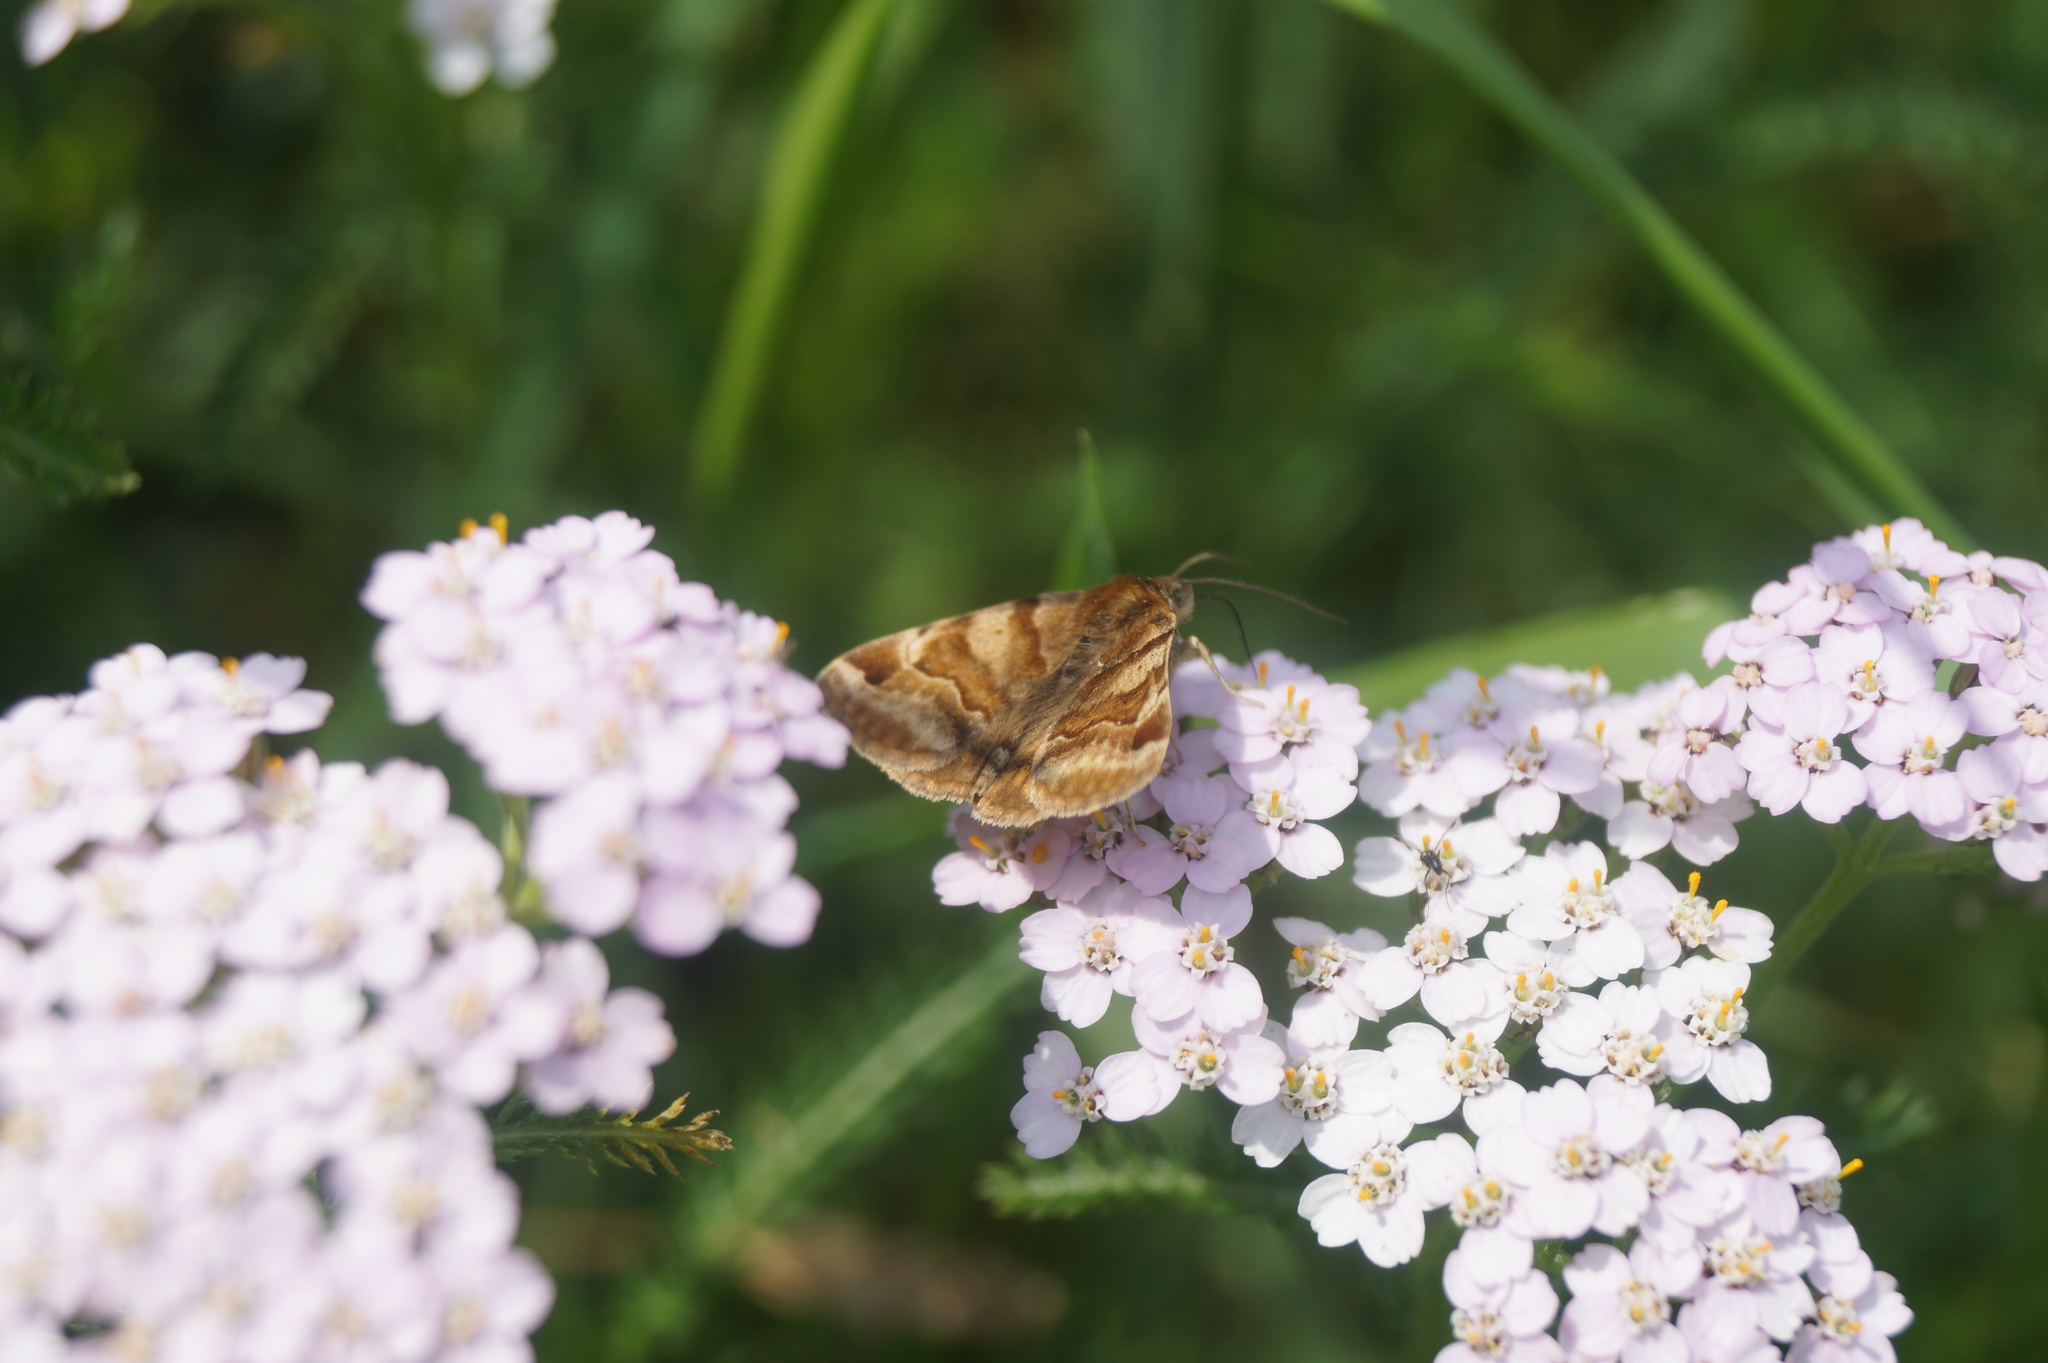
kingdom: Animalia
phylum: Arthropoda
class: Insecta
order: Lepidoptera
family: Erebidae
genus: Euclidia
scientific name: Euclidia glyphica
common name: Burnet companion
